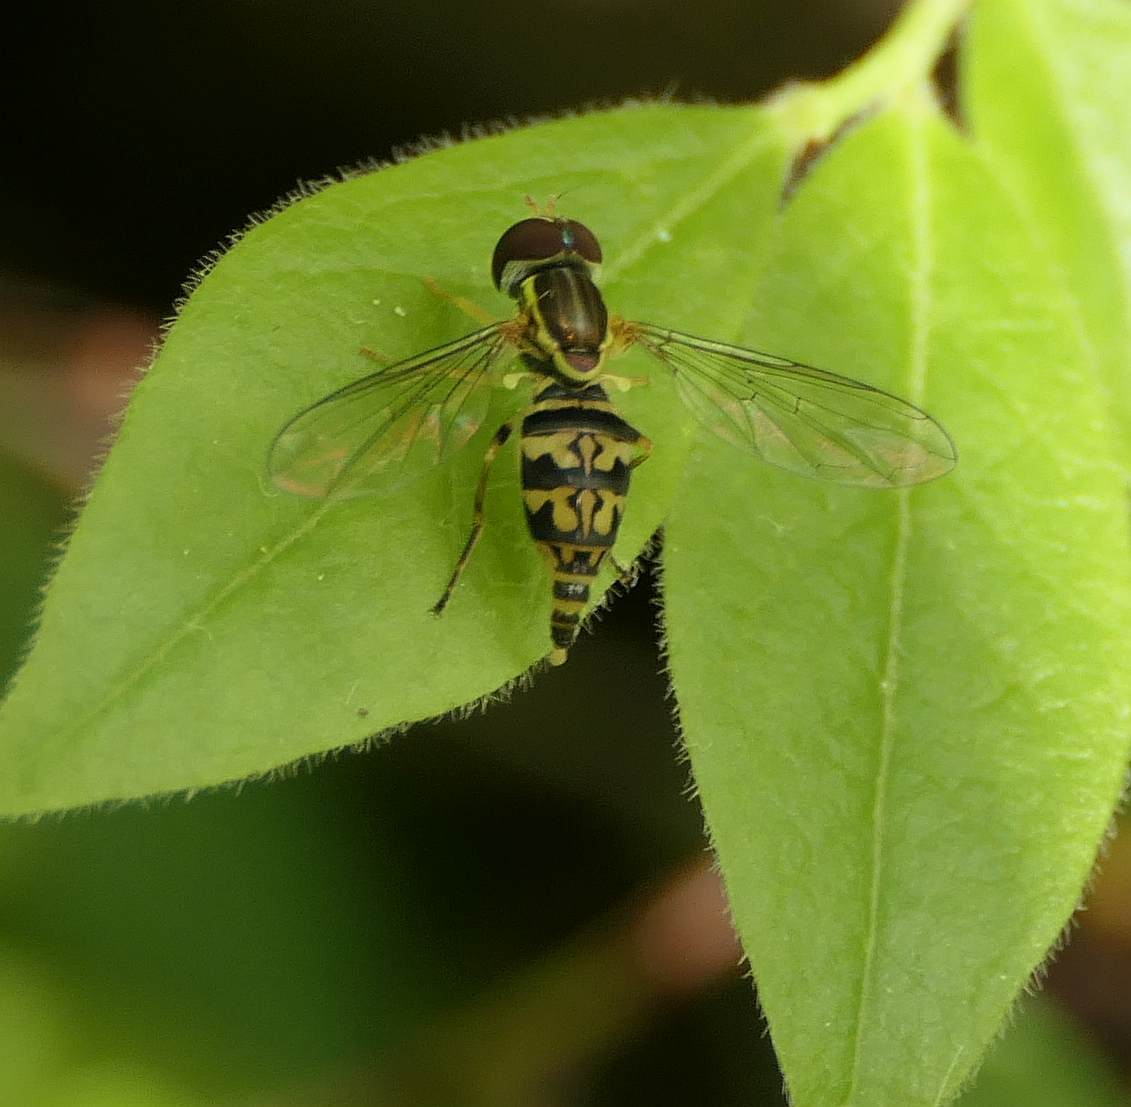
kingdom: Animalia
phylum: Arthropoda
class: Insecta
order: Diptera
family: Syrphidae
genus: Toxomerus
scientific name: Toxomerus geminatus
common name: Eastern calligrapher
